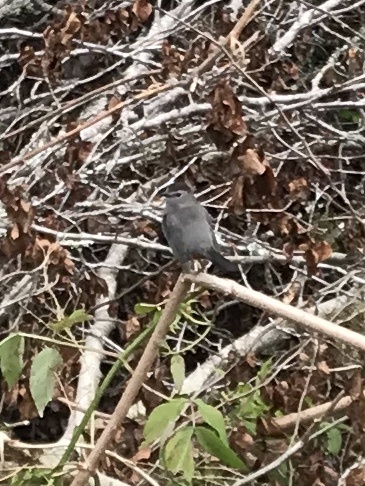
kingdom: Animalia
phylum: Chordata
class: Aves
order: Passeriformes
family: Mimidae
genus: Dumetella
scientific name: Dumetella carolinensis
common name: Gray catbird
